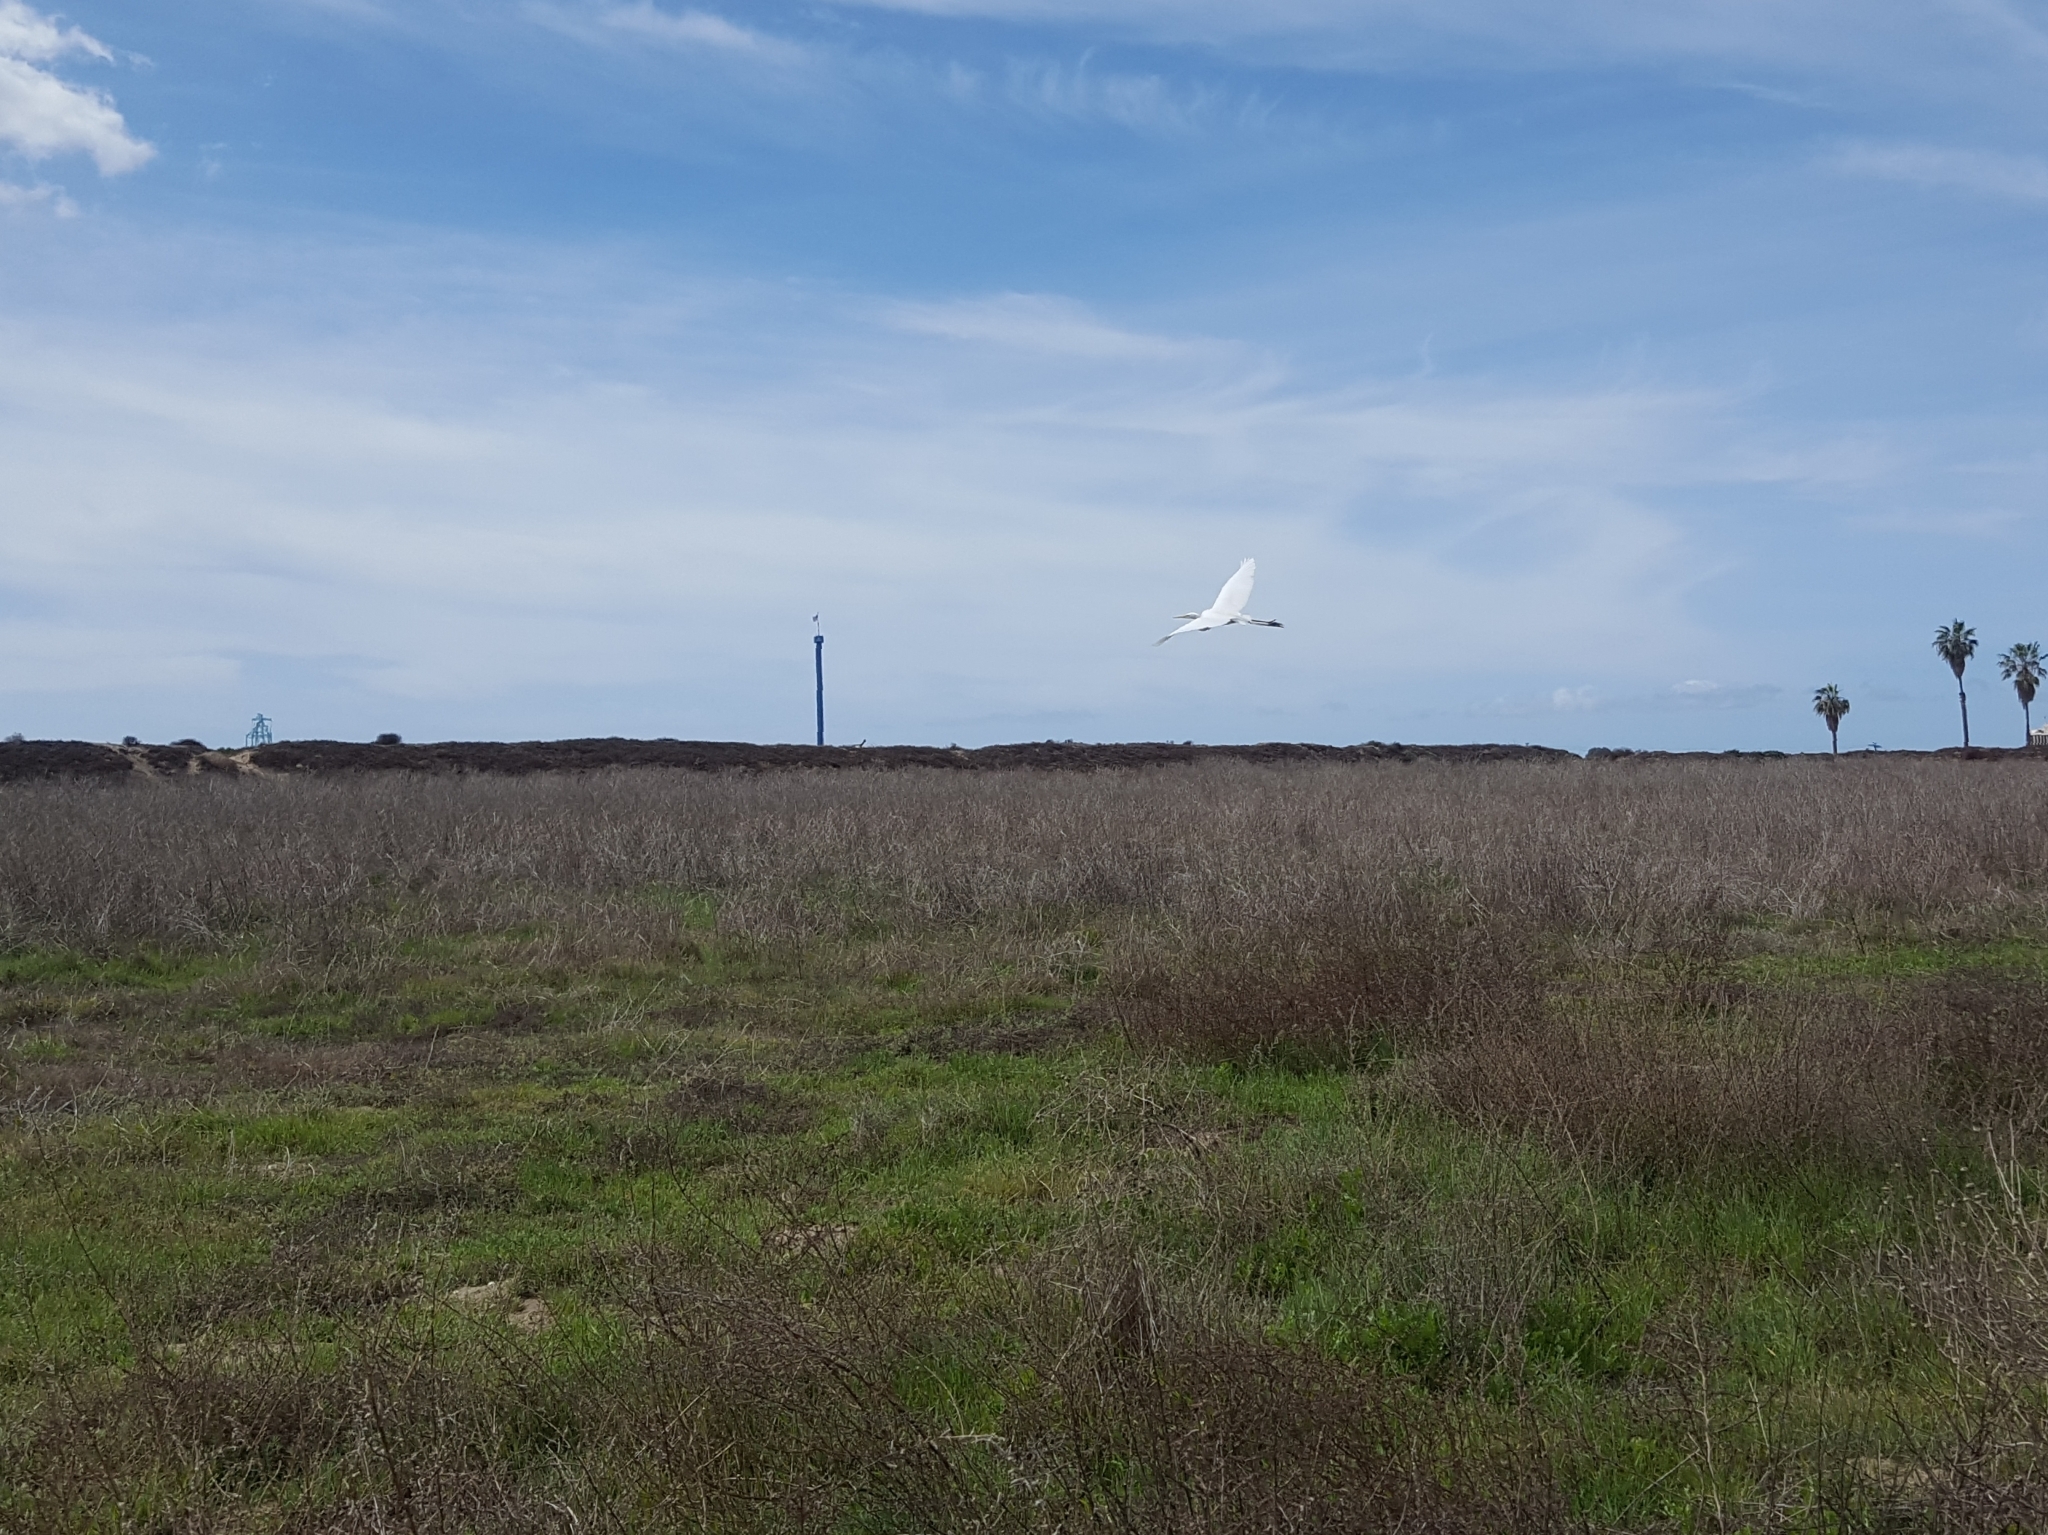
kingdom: Animalia
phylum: Chordata
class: Aves
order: Pelecaniformes
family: Ardeidae
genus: Ardea
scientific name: Ardea alba
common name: Great egret
